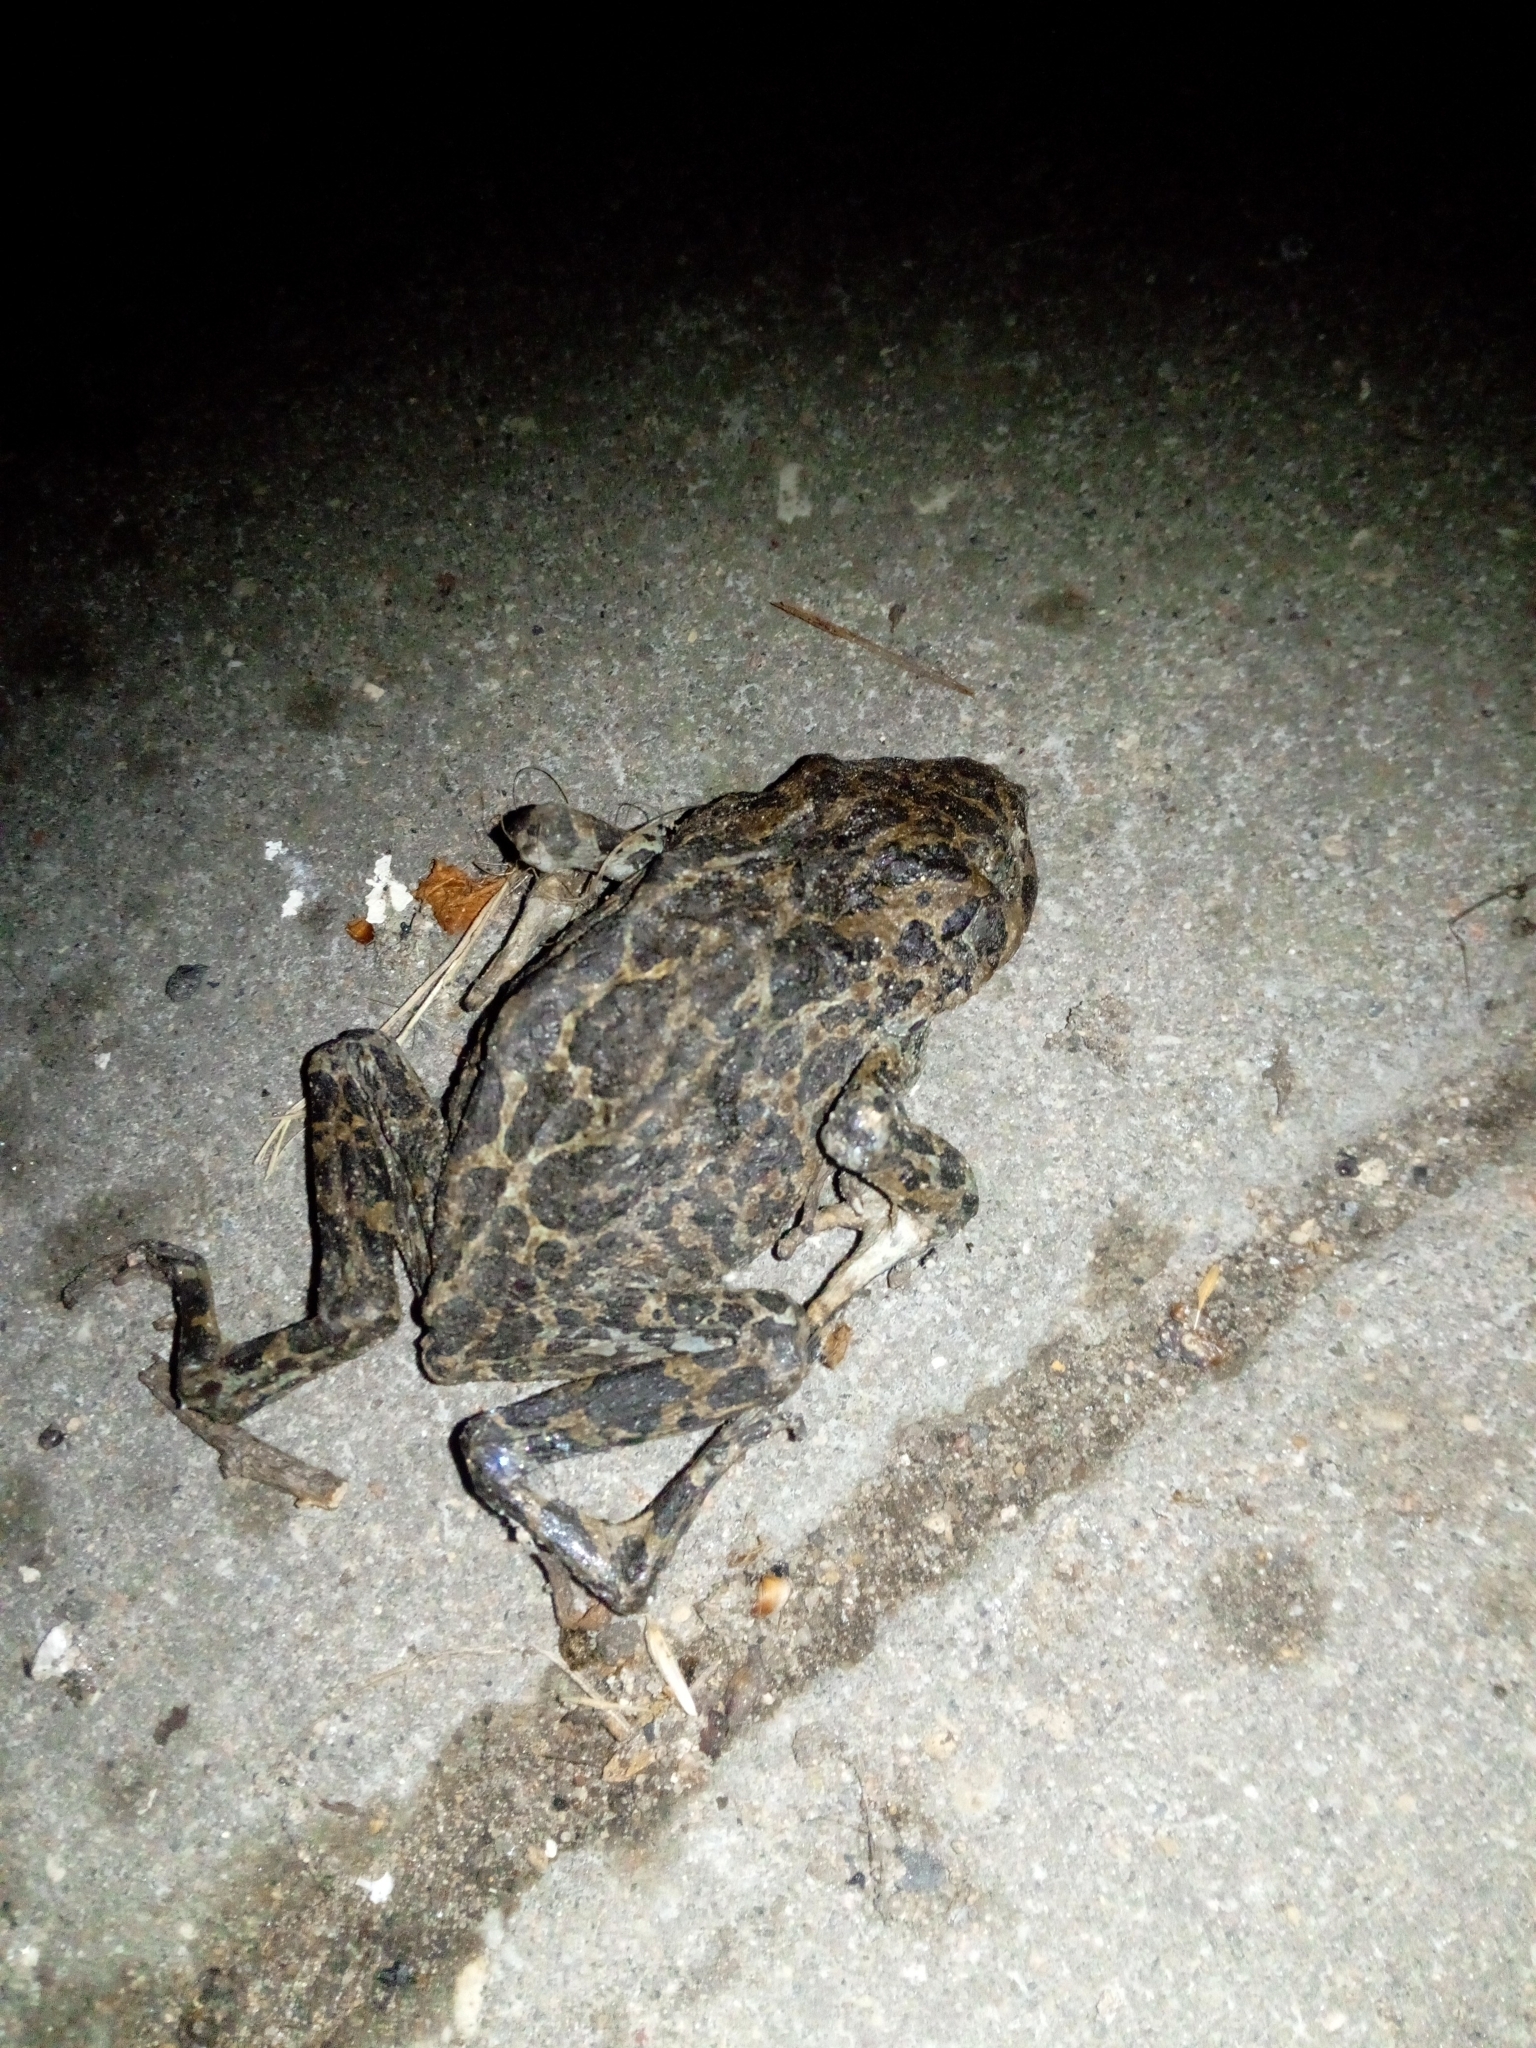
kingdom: Animalia
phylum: Chordata
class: Amphibia
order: Anura
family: Bufonidae
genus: Bufotes
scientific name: Bufotes viridis
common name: European green toad
